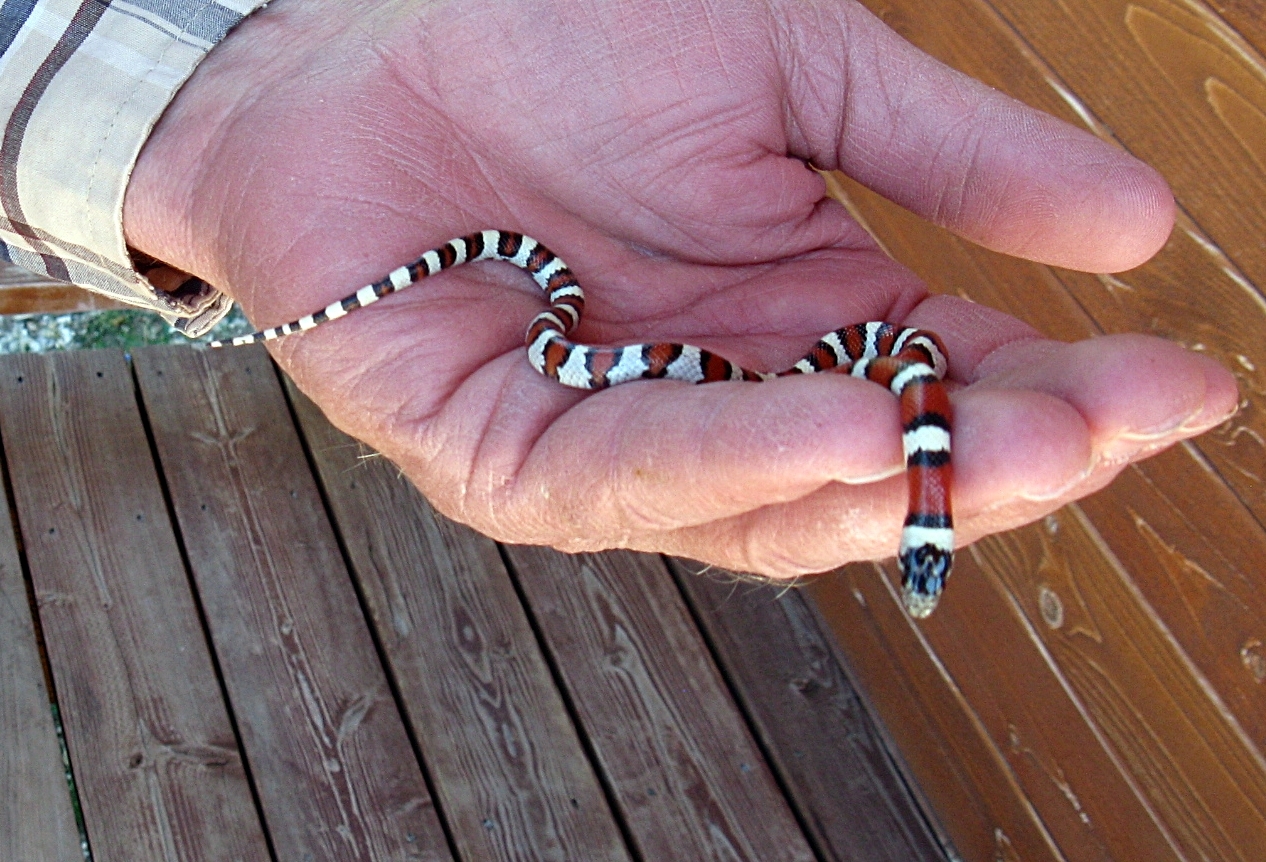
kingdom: Animalia
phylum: Chordata
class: Squamata
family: Colubridae
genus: Lampropeltis
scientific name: Lampropeltis gentilis
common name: Central plains milksnake
